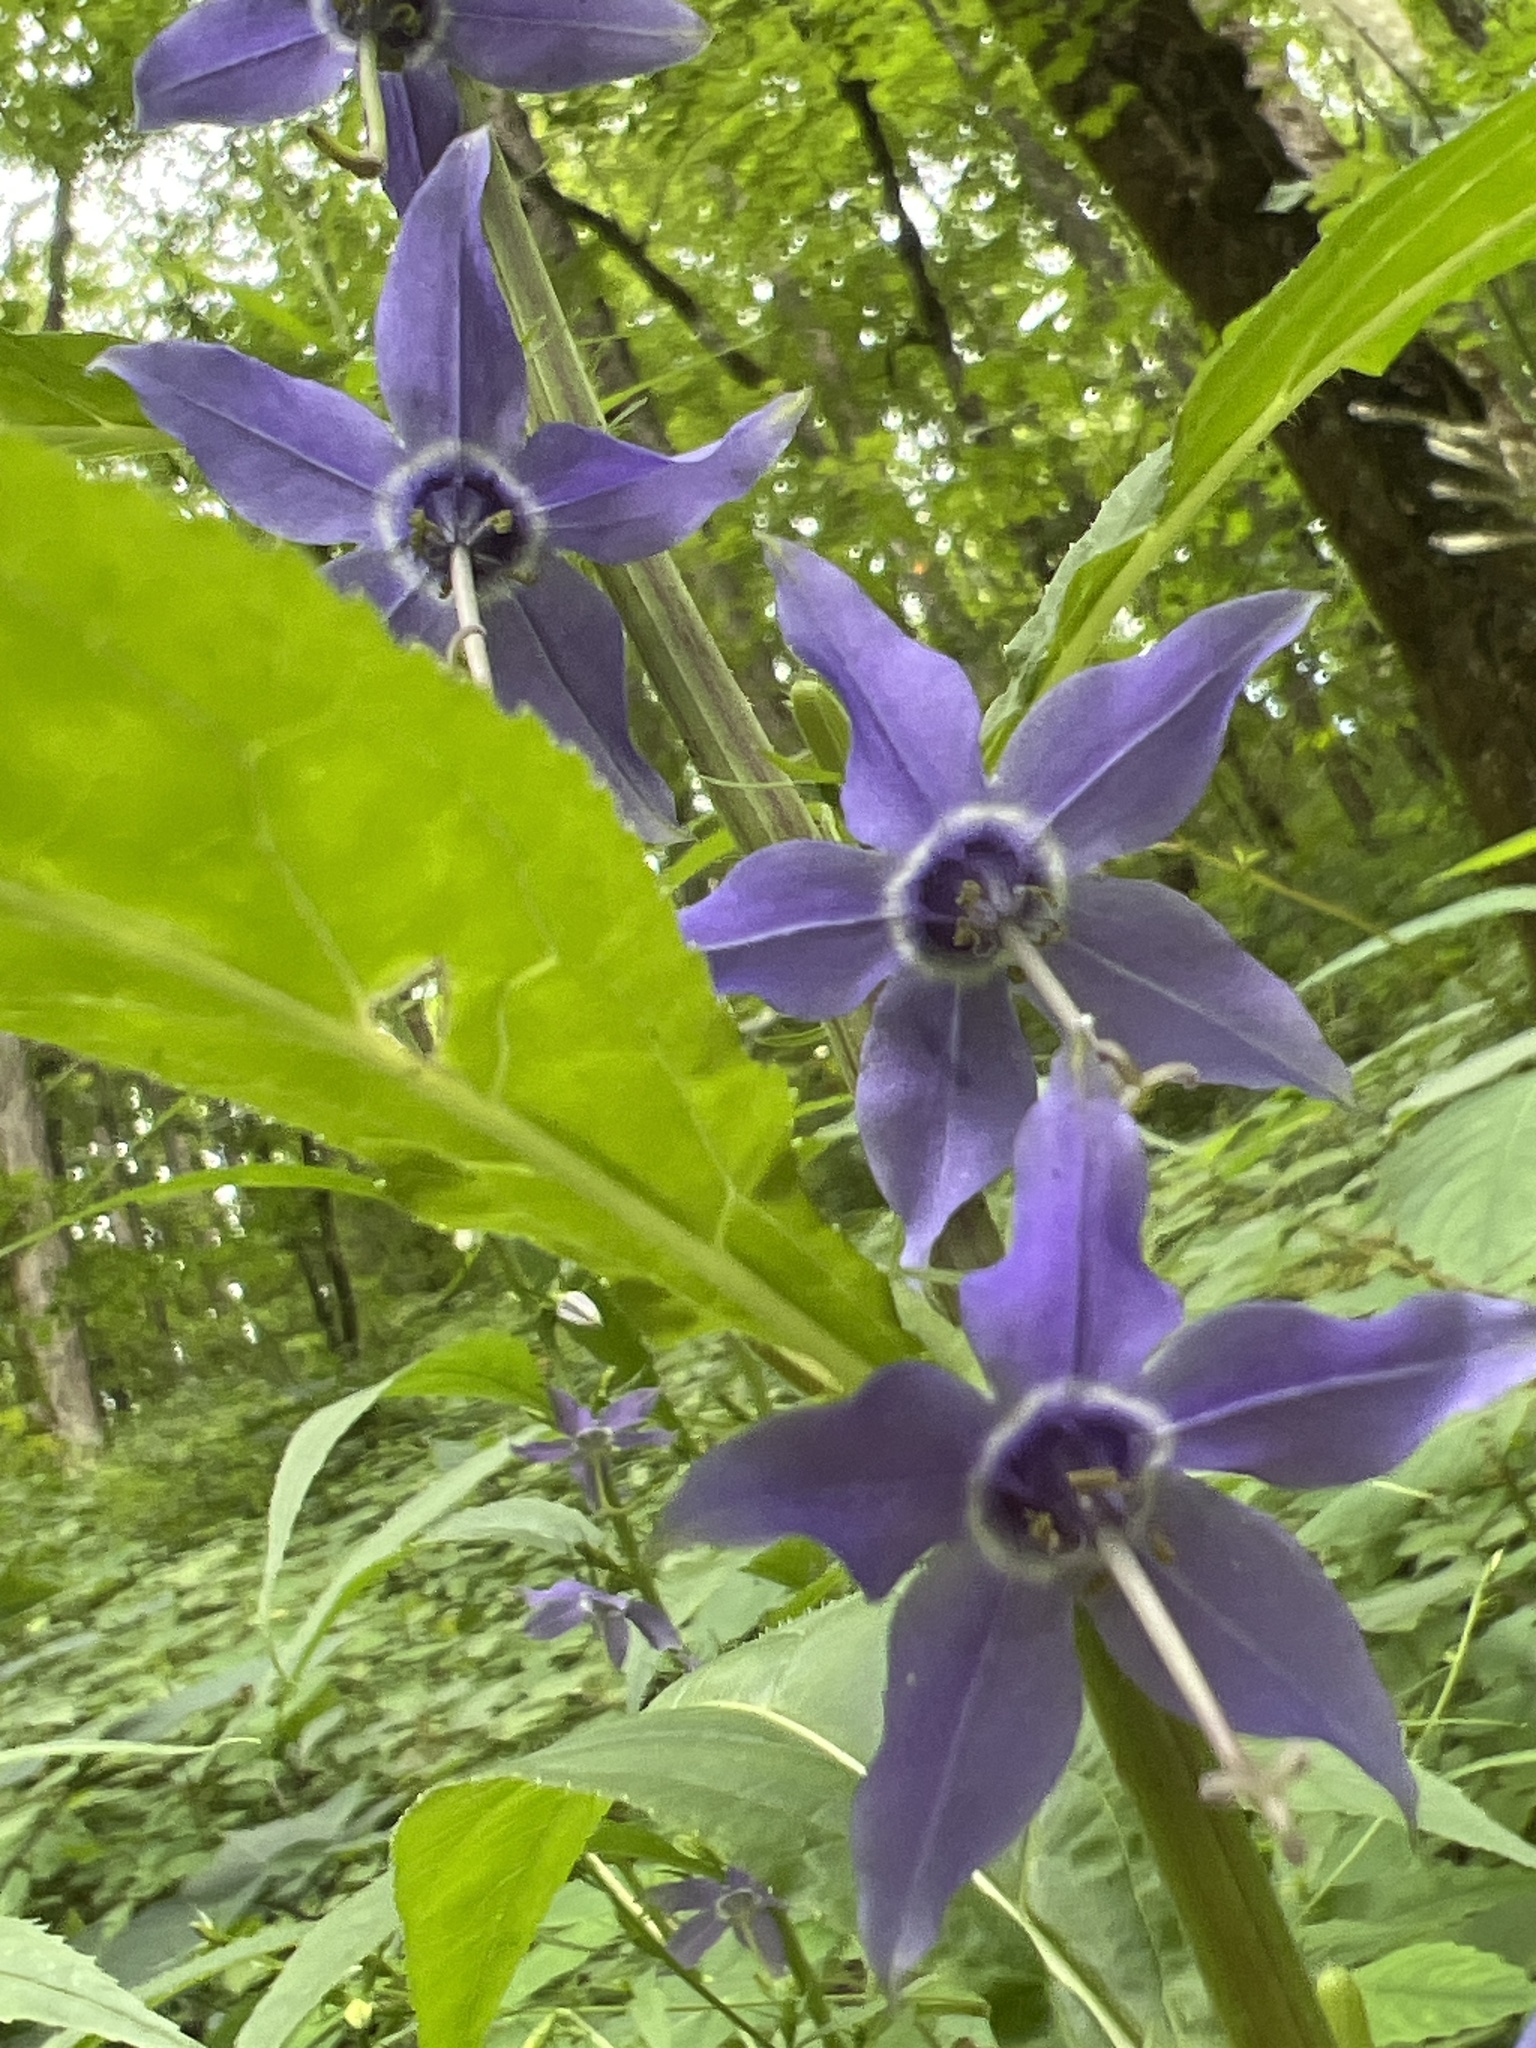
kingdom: Plantae
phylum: Tracheophyta
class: Magnoliopsida
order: Asterales
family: Campanulaceae
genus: Campanulastrum
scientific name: Campanulastrum americanum
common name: American bellflower
